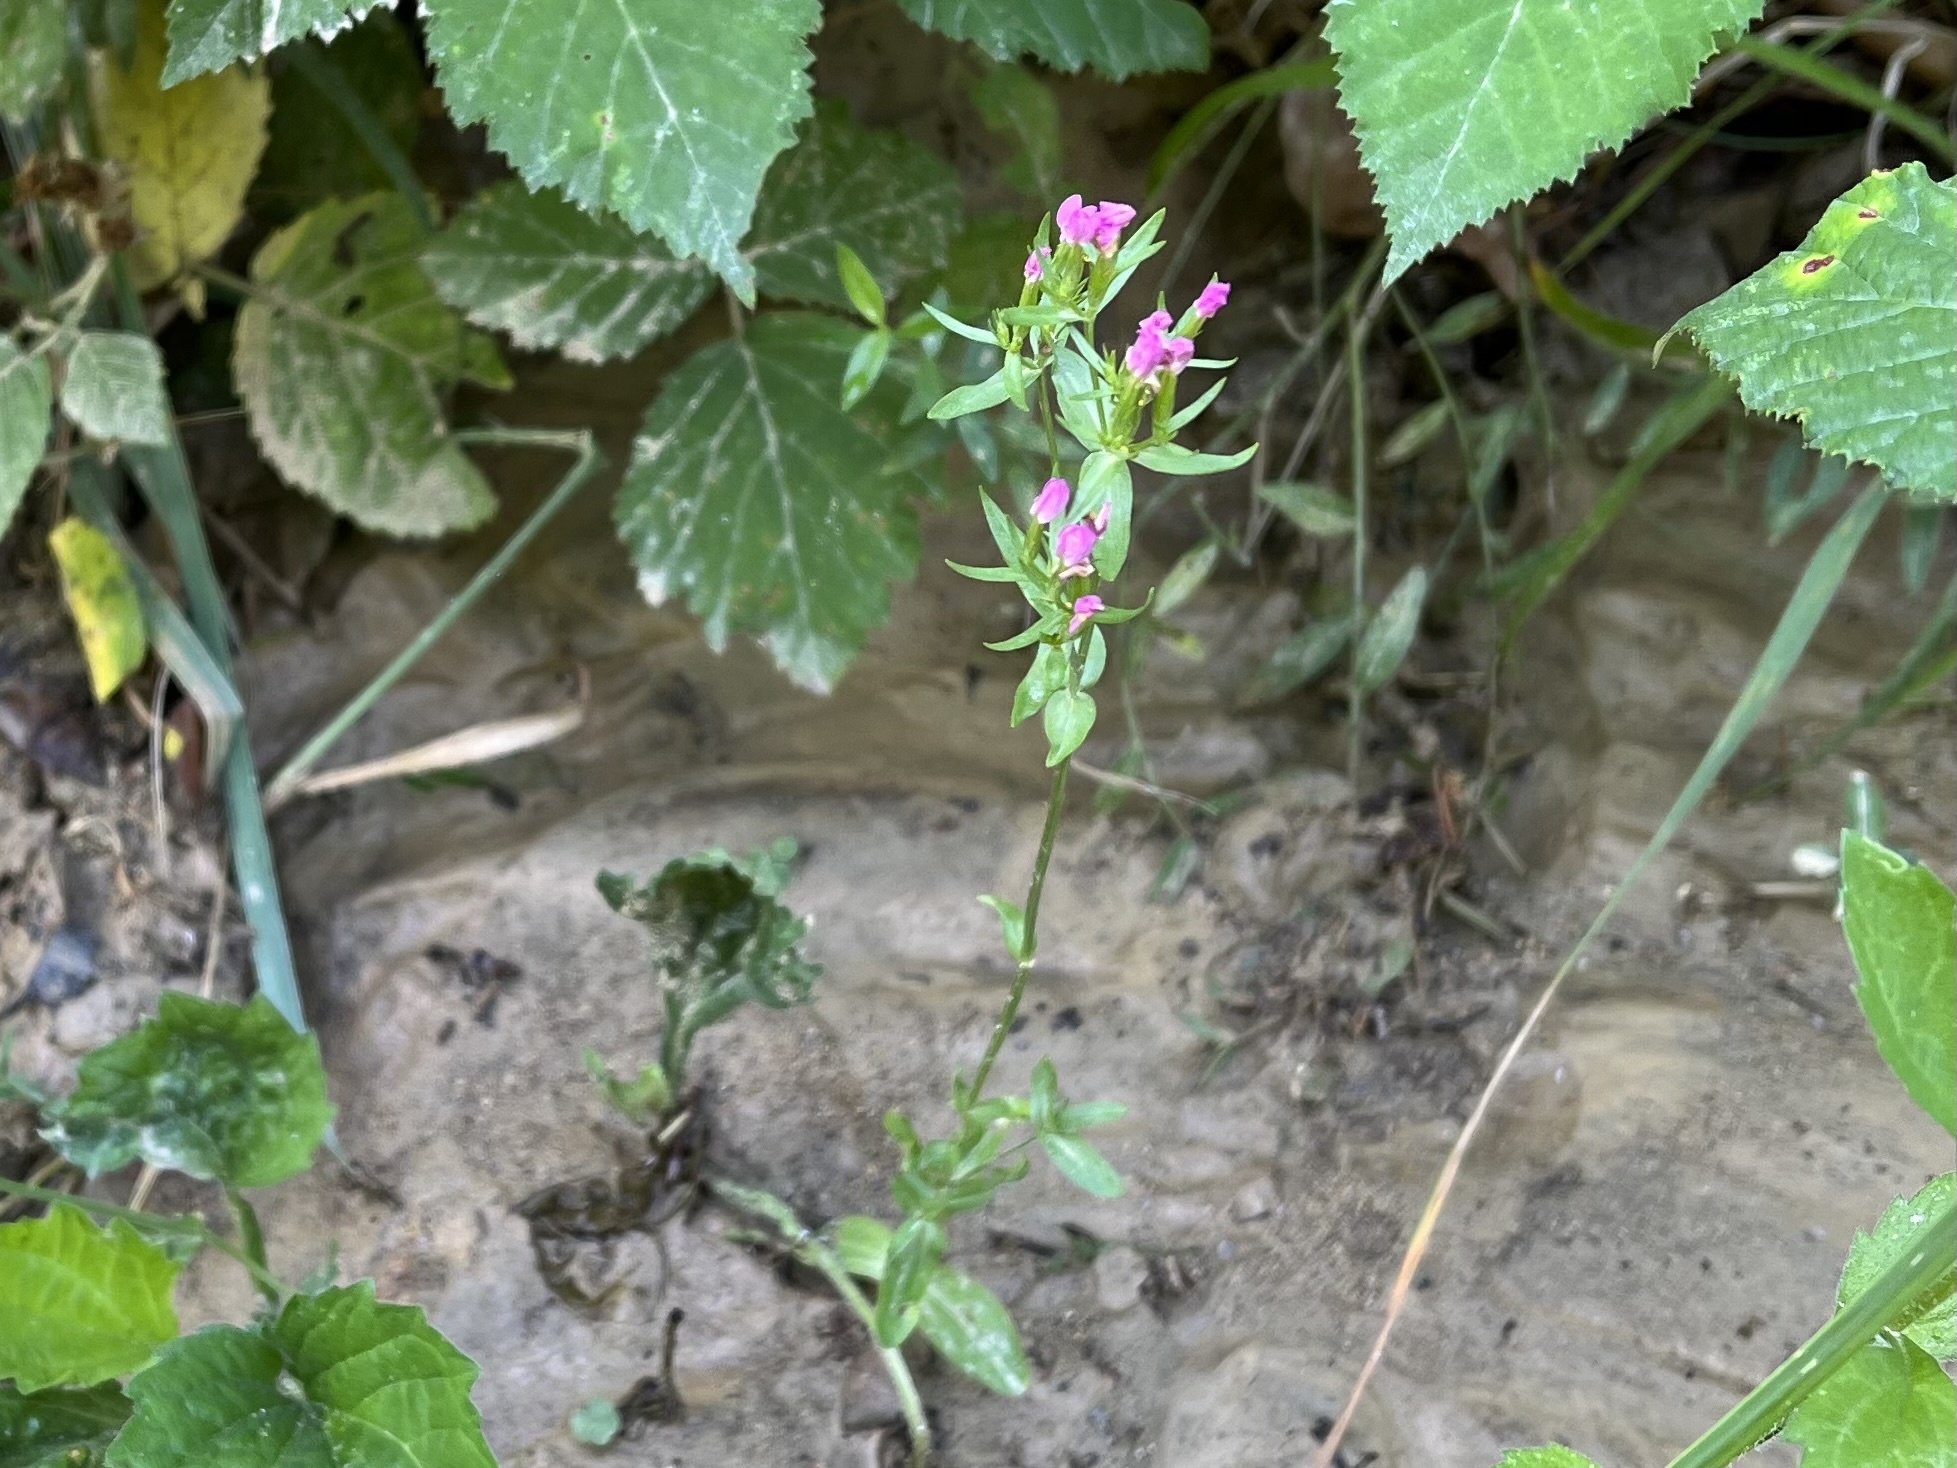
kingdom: Plantae
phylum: Tracheophyta
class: Magnoliopsida
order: Gentianales
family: Gentianaceae
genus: Centaurium
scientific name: Centaurium erythraea
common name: Common centaury
